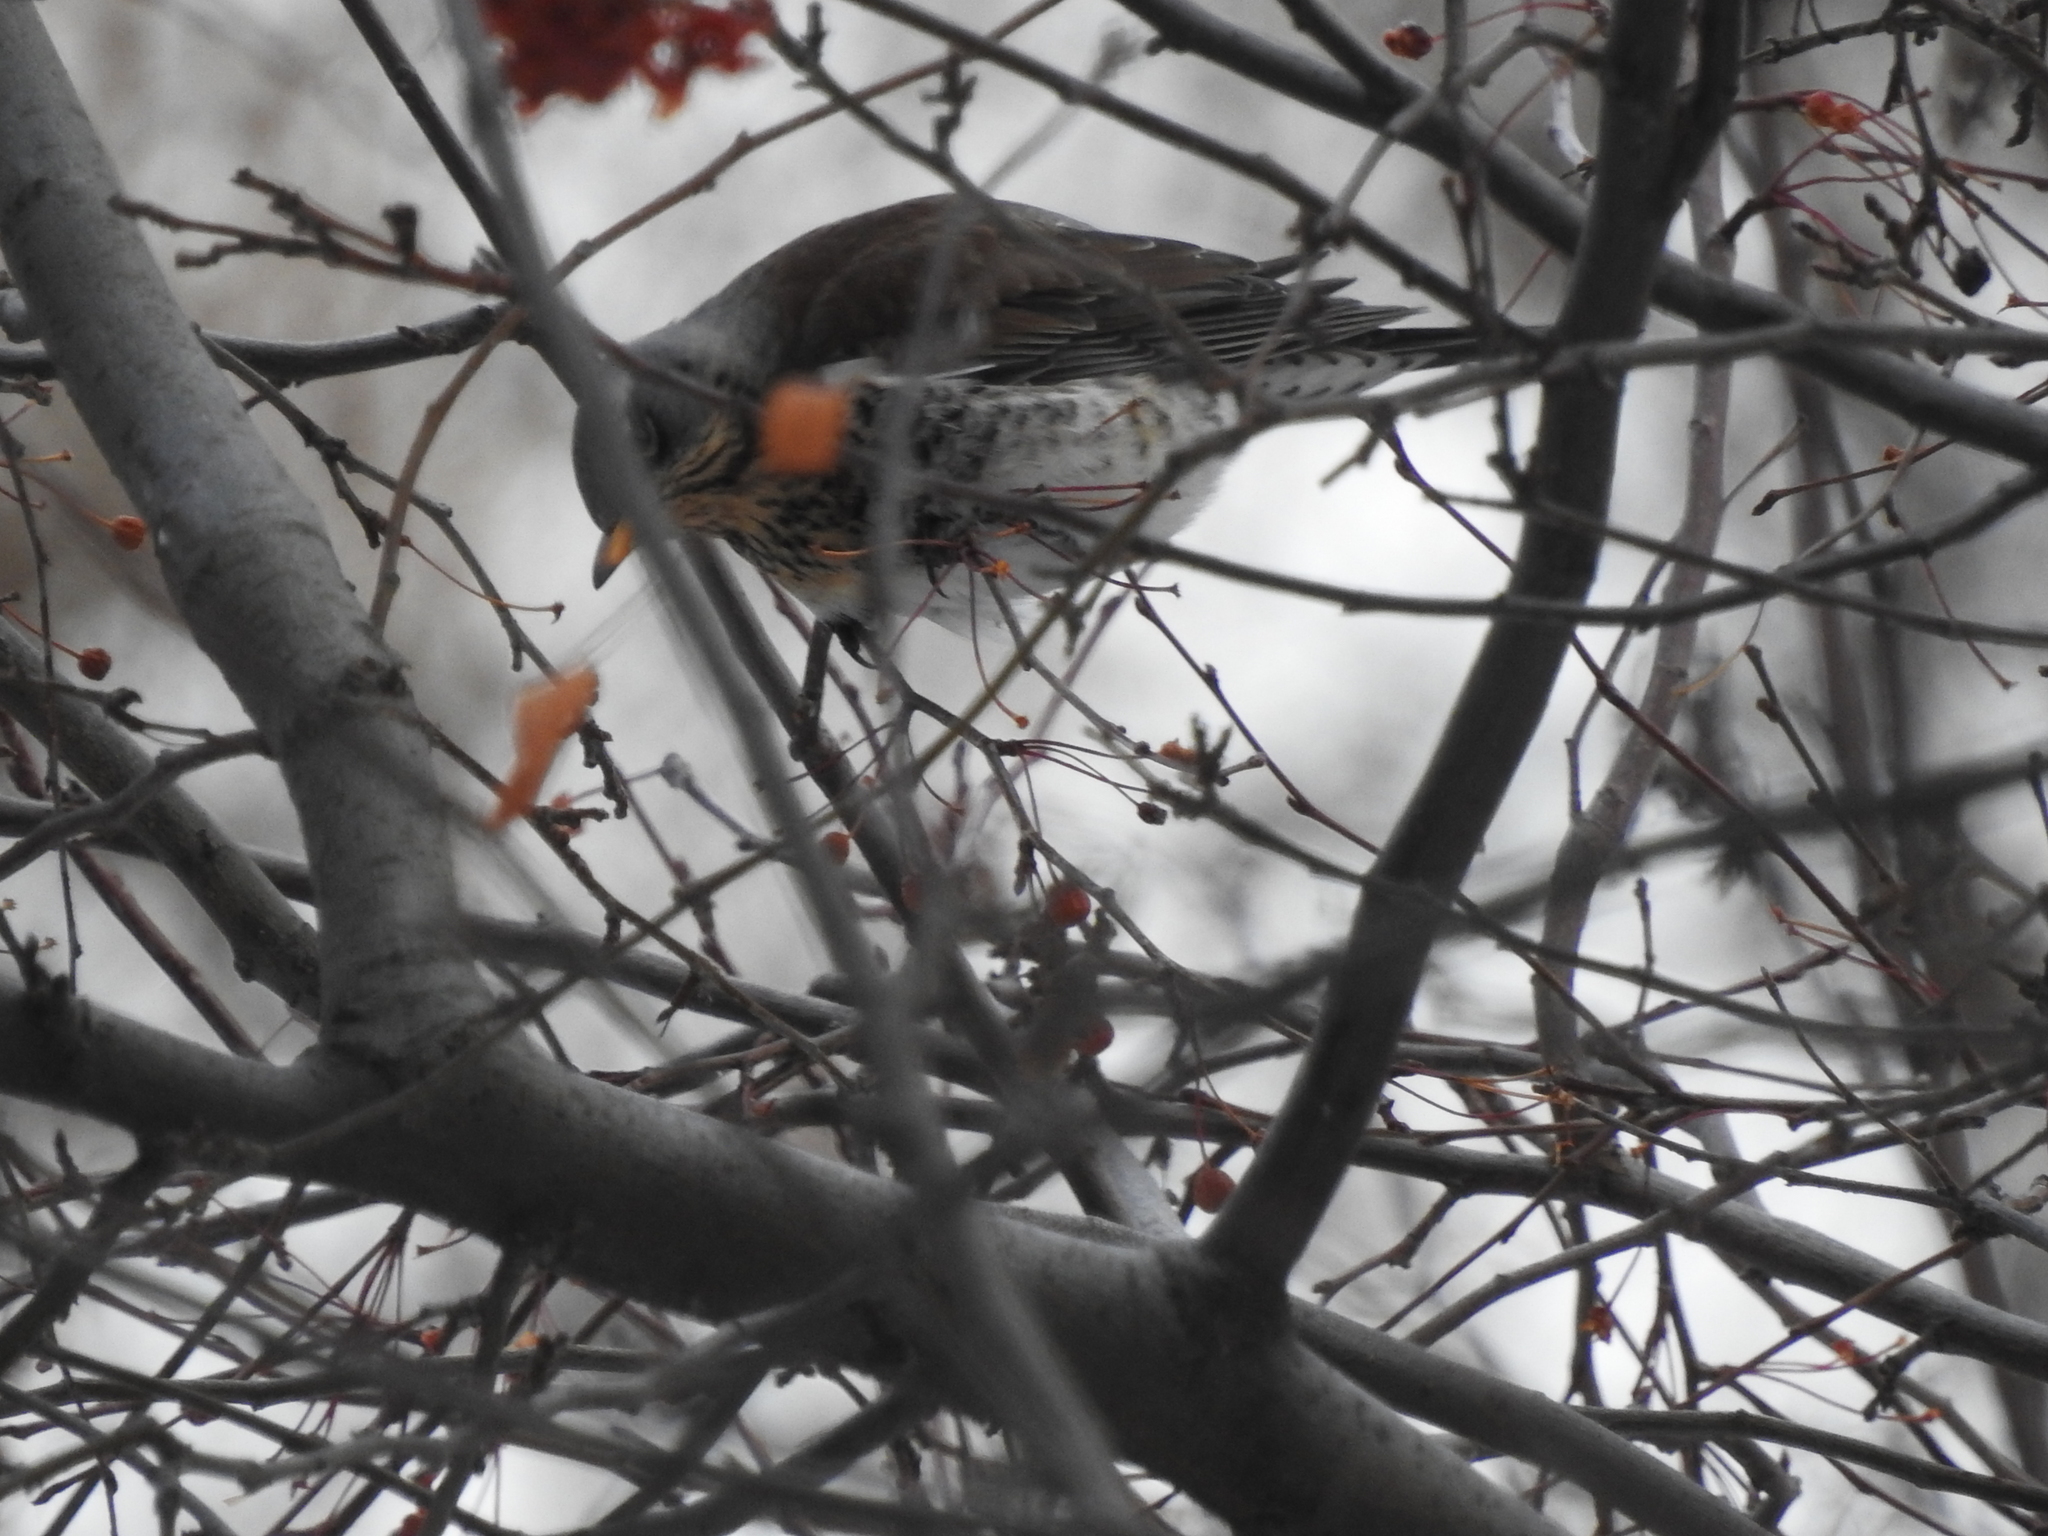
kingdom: Animalia
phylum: Chordata
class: Aves
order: Passeriformes
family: Turdidae
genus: Turdus
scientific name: Turdus pilaris
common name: Fieldfare
